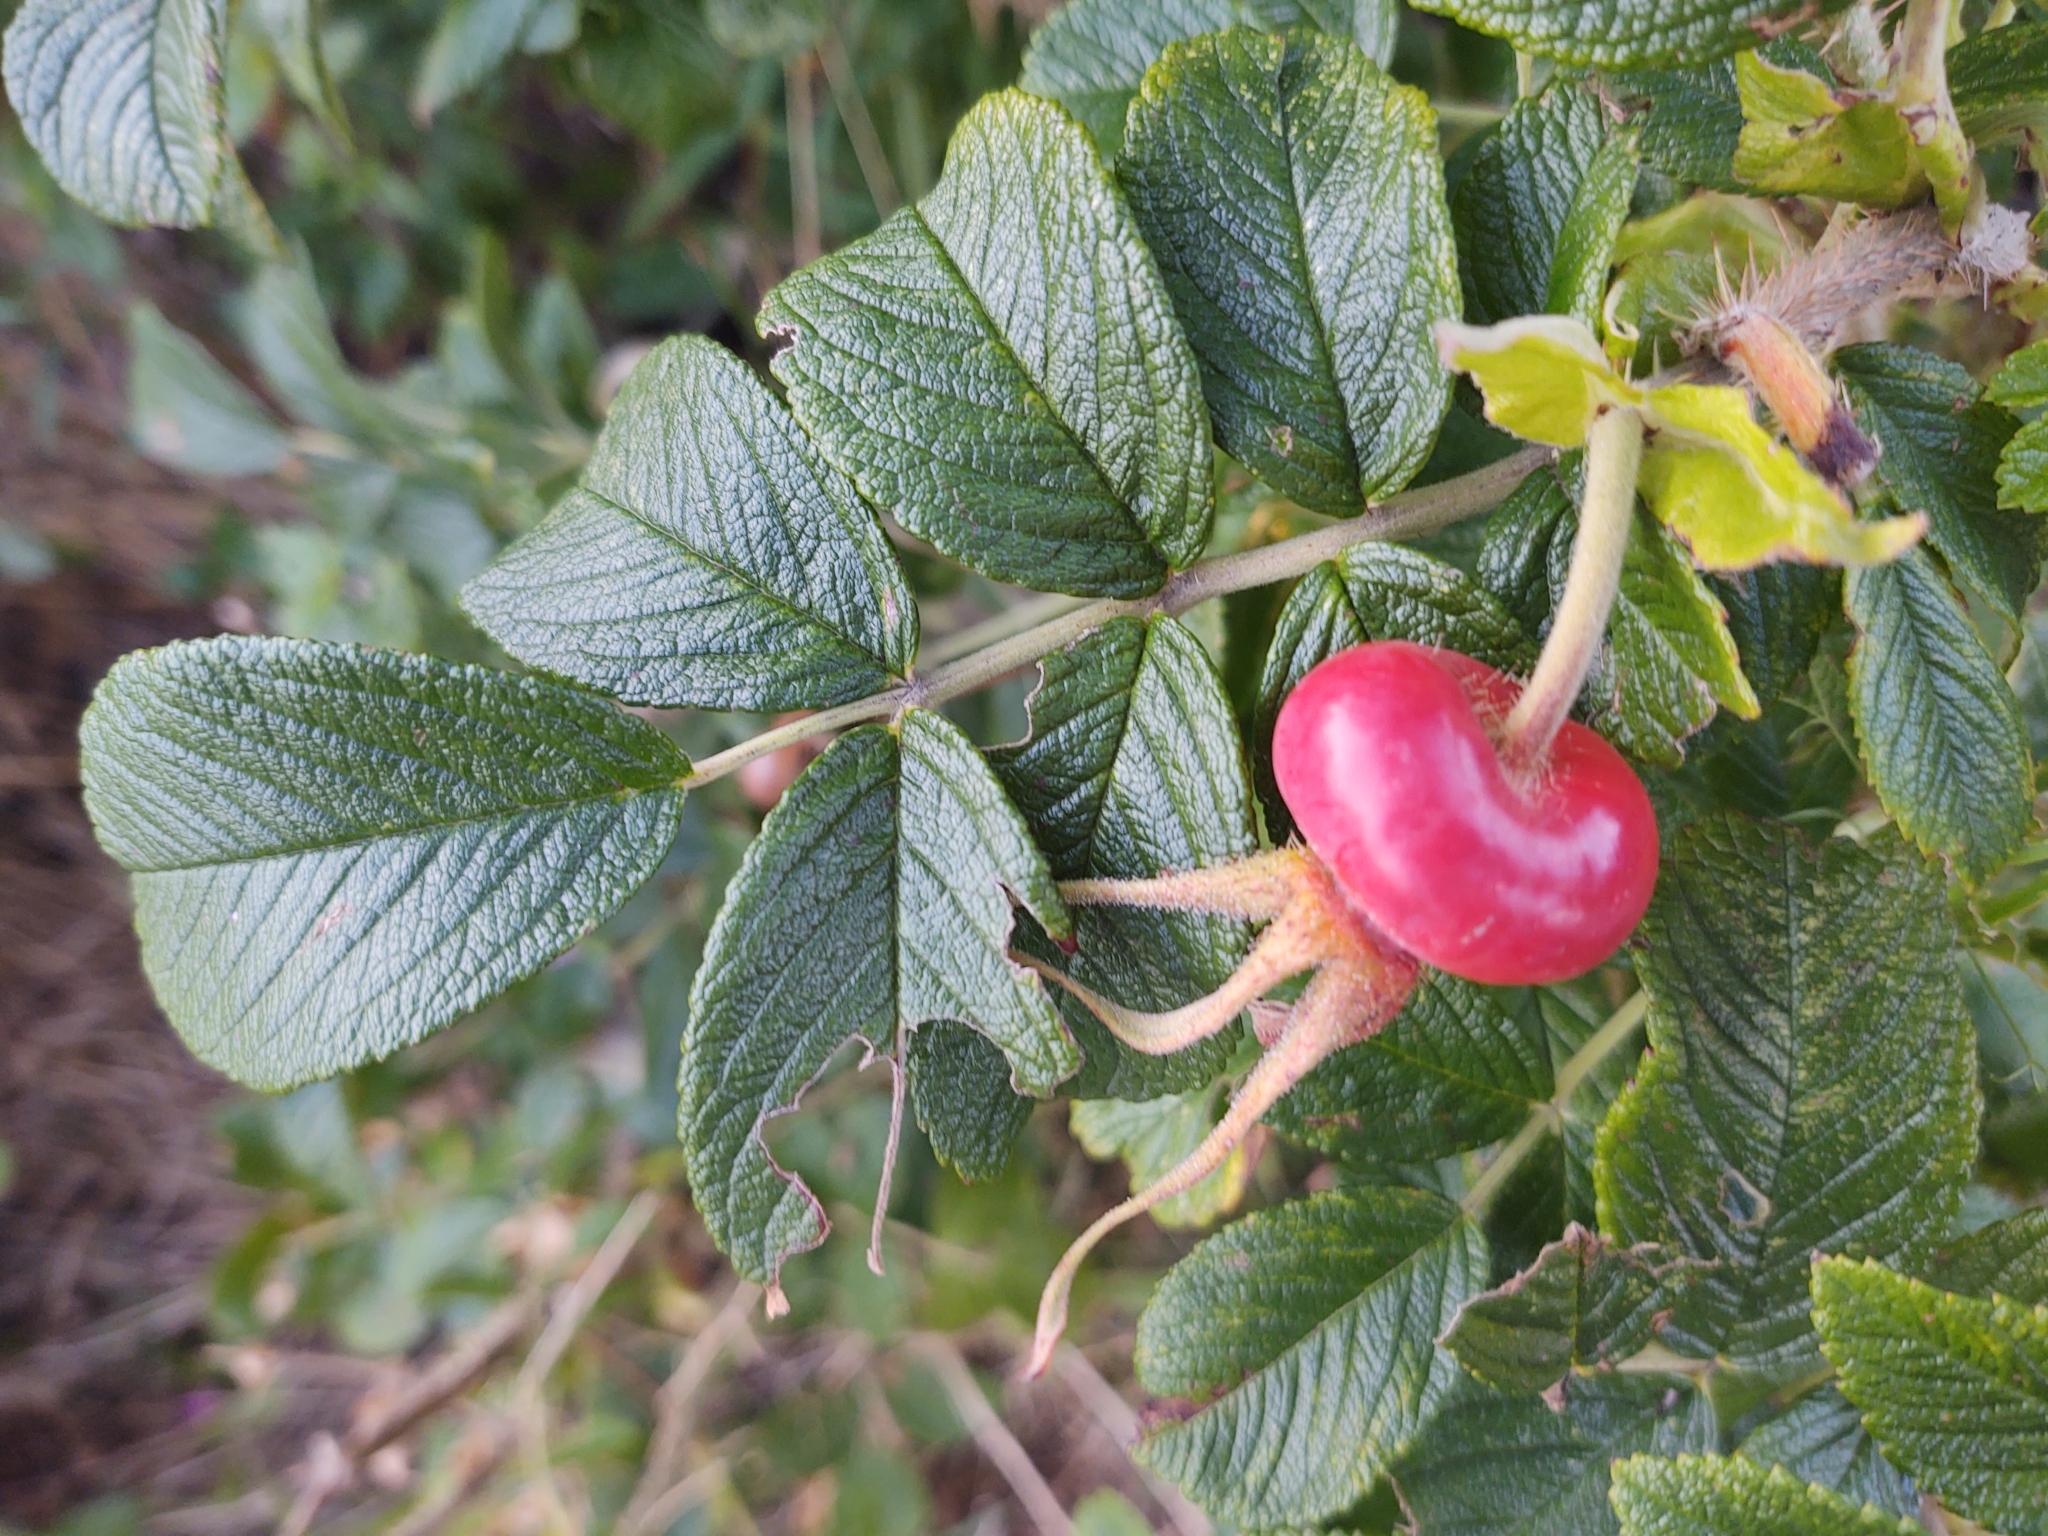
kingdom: Plantae
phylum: Tracheophyta
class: Magnoliopsida
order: Rosales
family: Rosaceae
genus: Rosa
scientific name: Rosa rugosa
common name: Japanese rose
